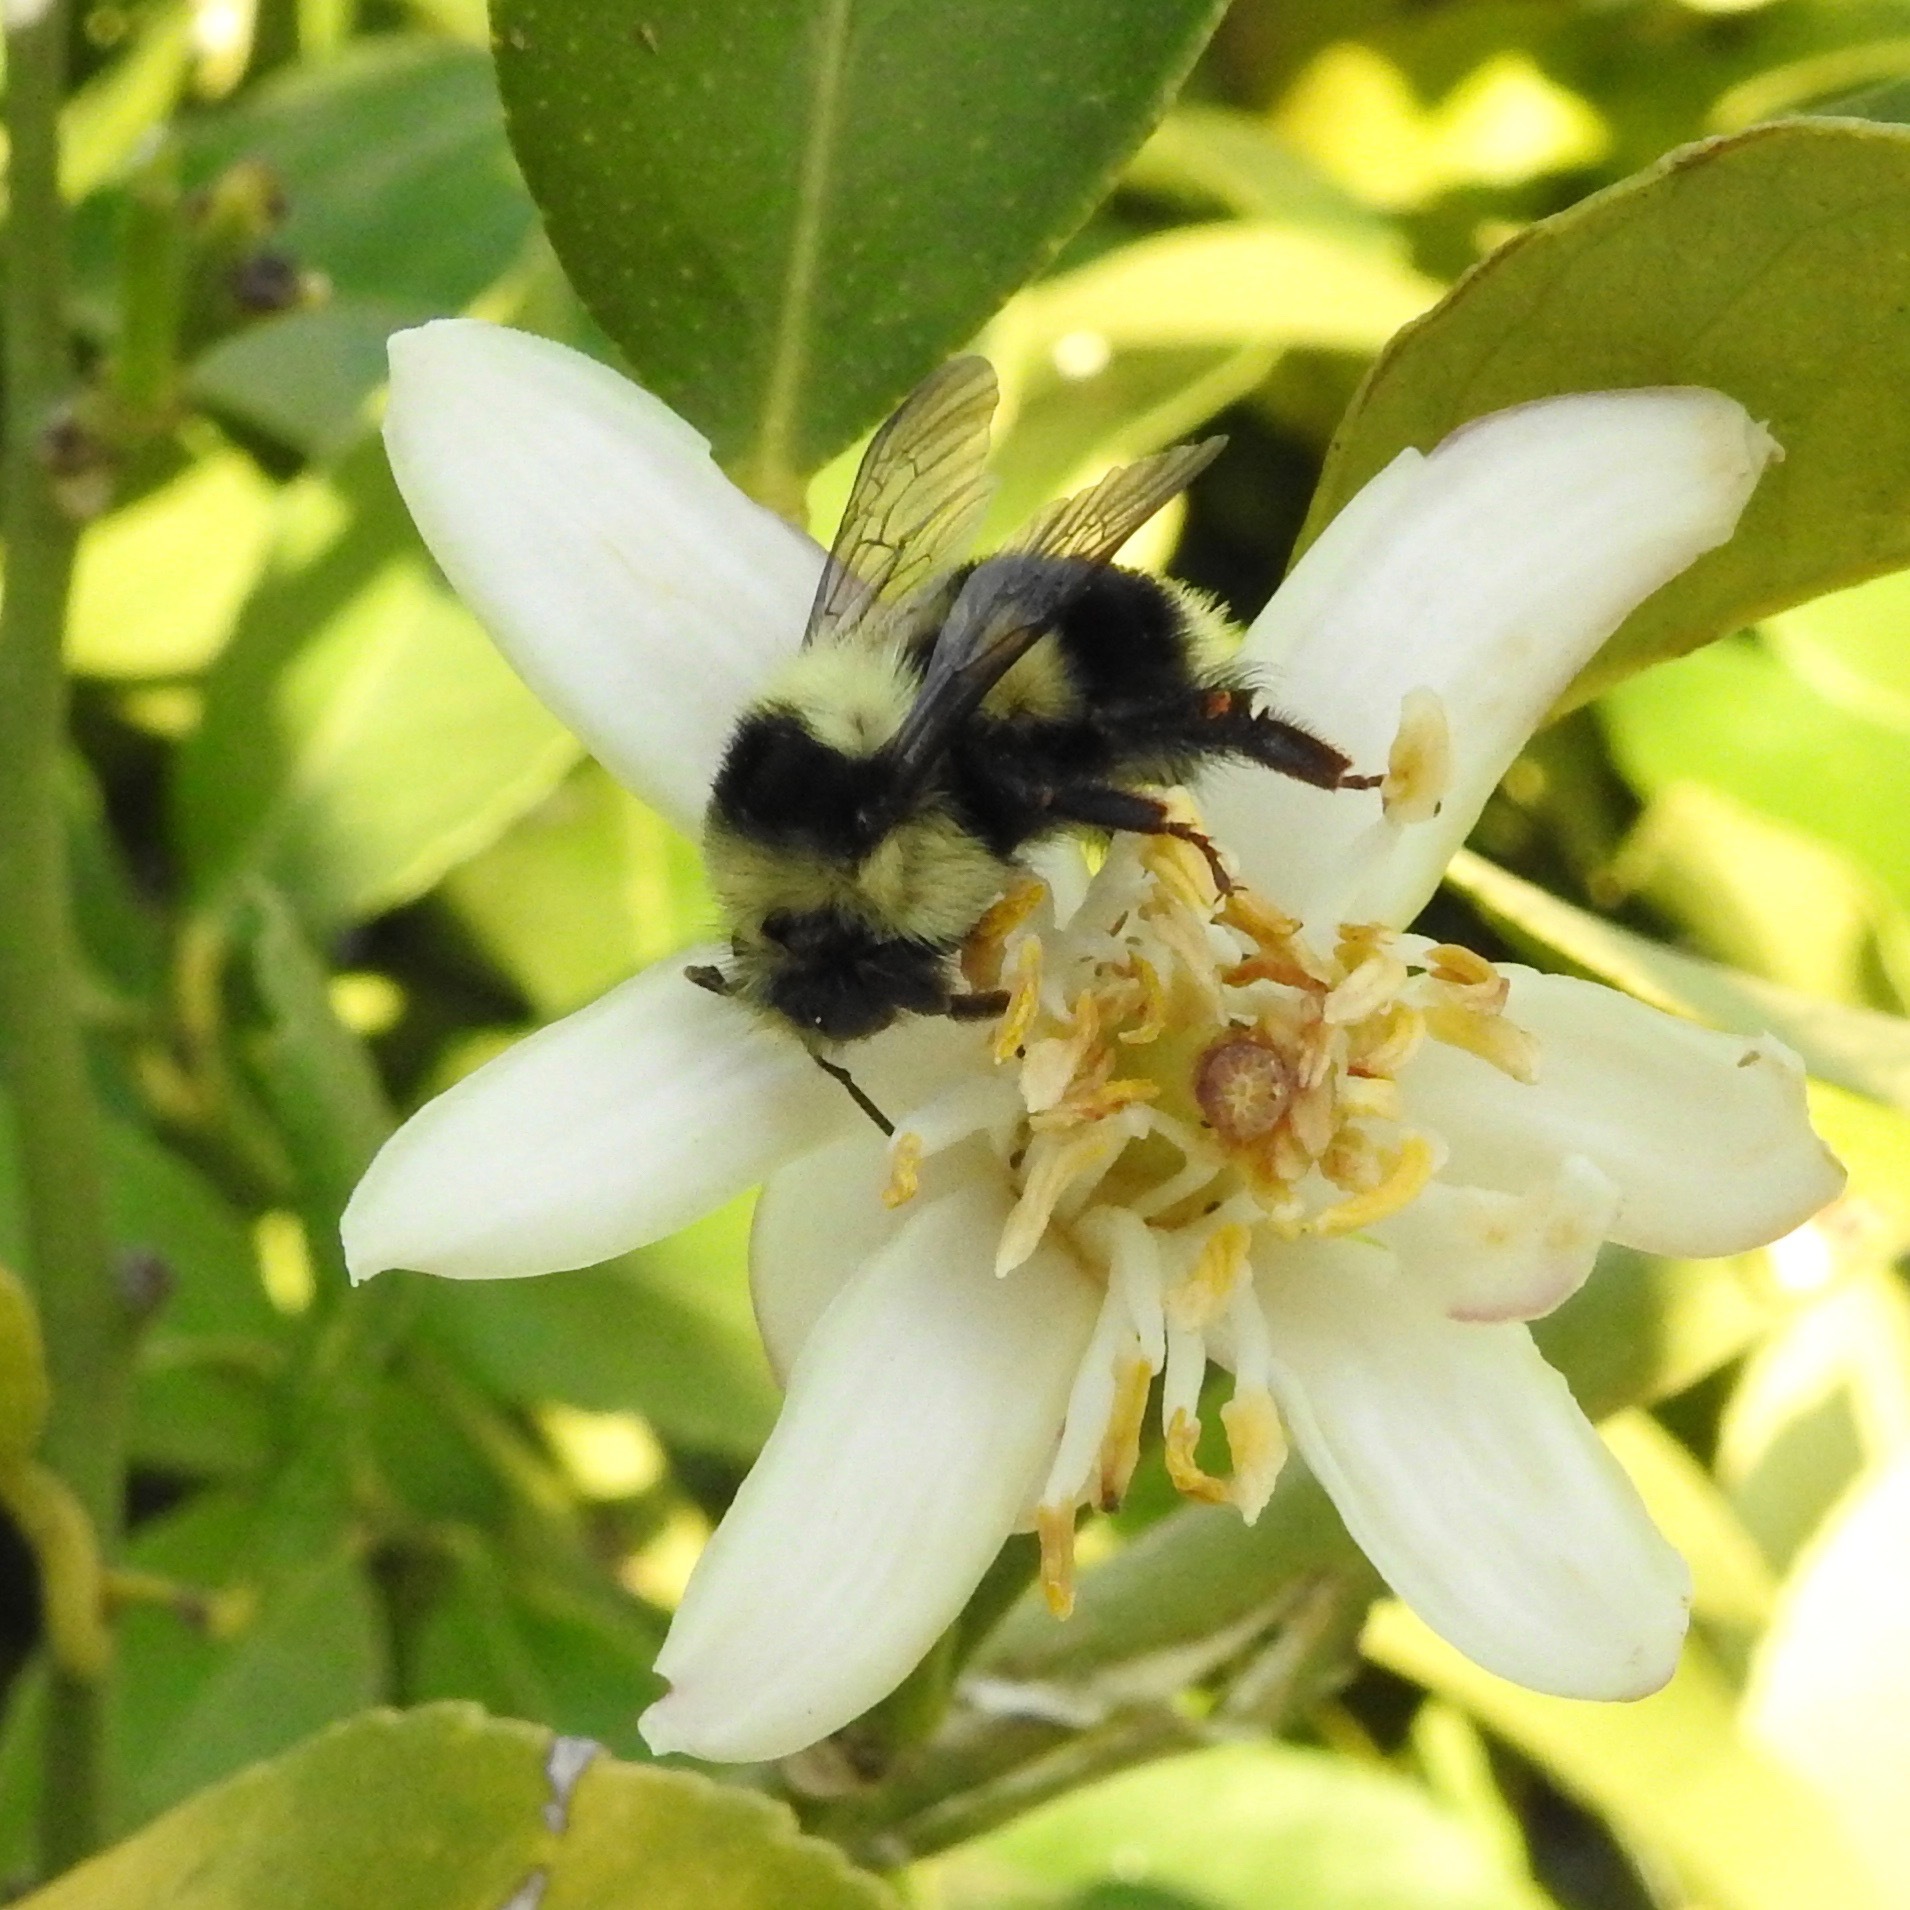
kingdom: Animalia
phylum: Arthropoda
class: Insecta
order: Hymenoptera
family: Apidae
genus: Bombus
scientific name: Bombus melanopygus
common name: Black tail bumble bee
